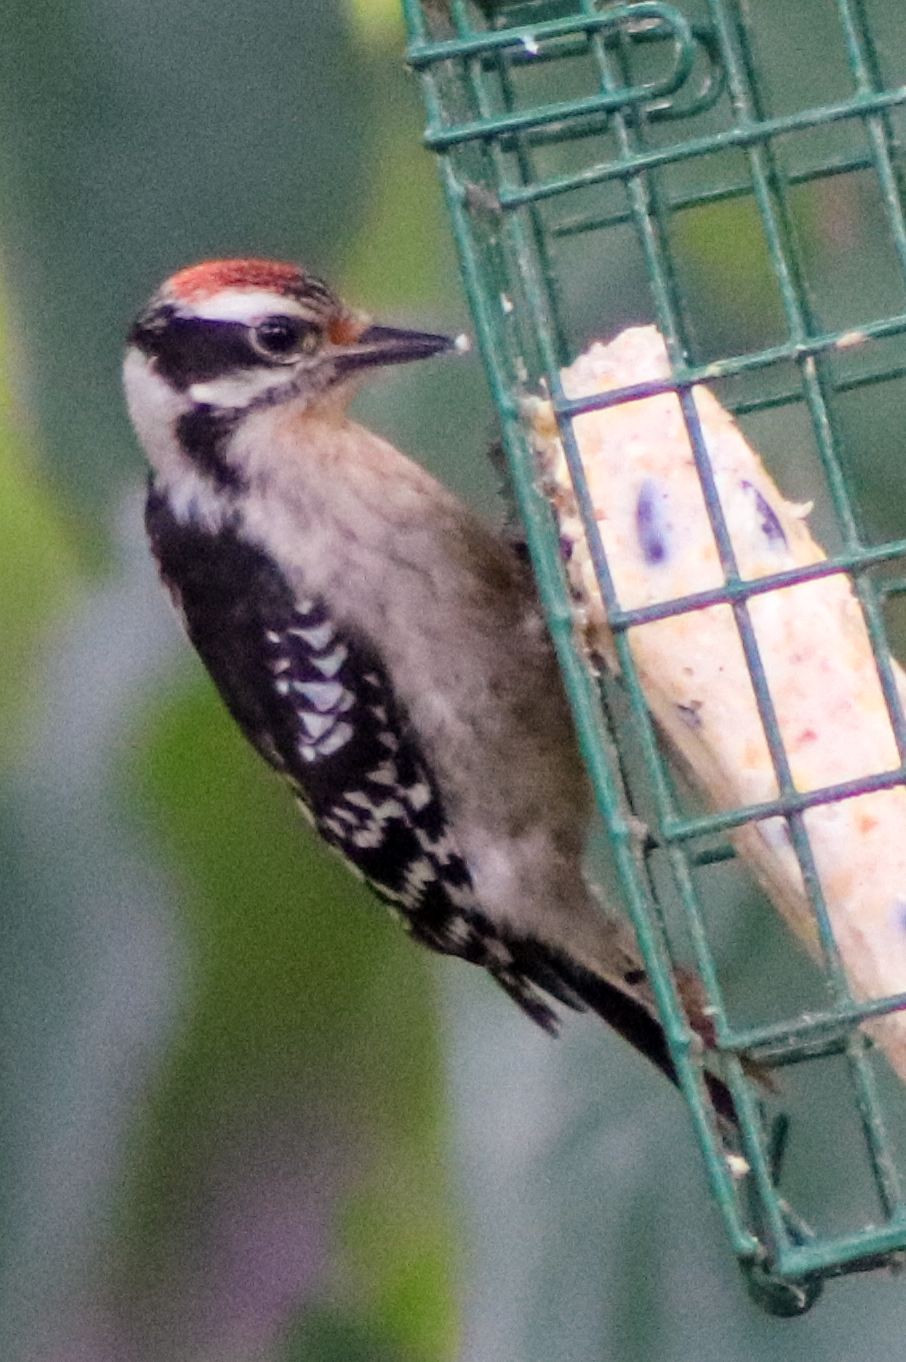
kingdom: Animalia
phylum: Chordata
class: Aves
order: Piciformes
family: Picidae
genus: Dryobates
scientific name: Dryobates pubescens
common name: Downy woodpecker
